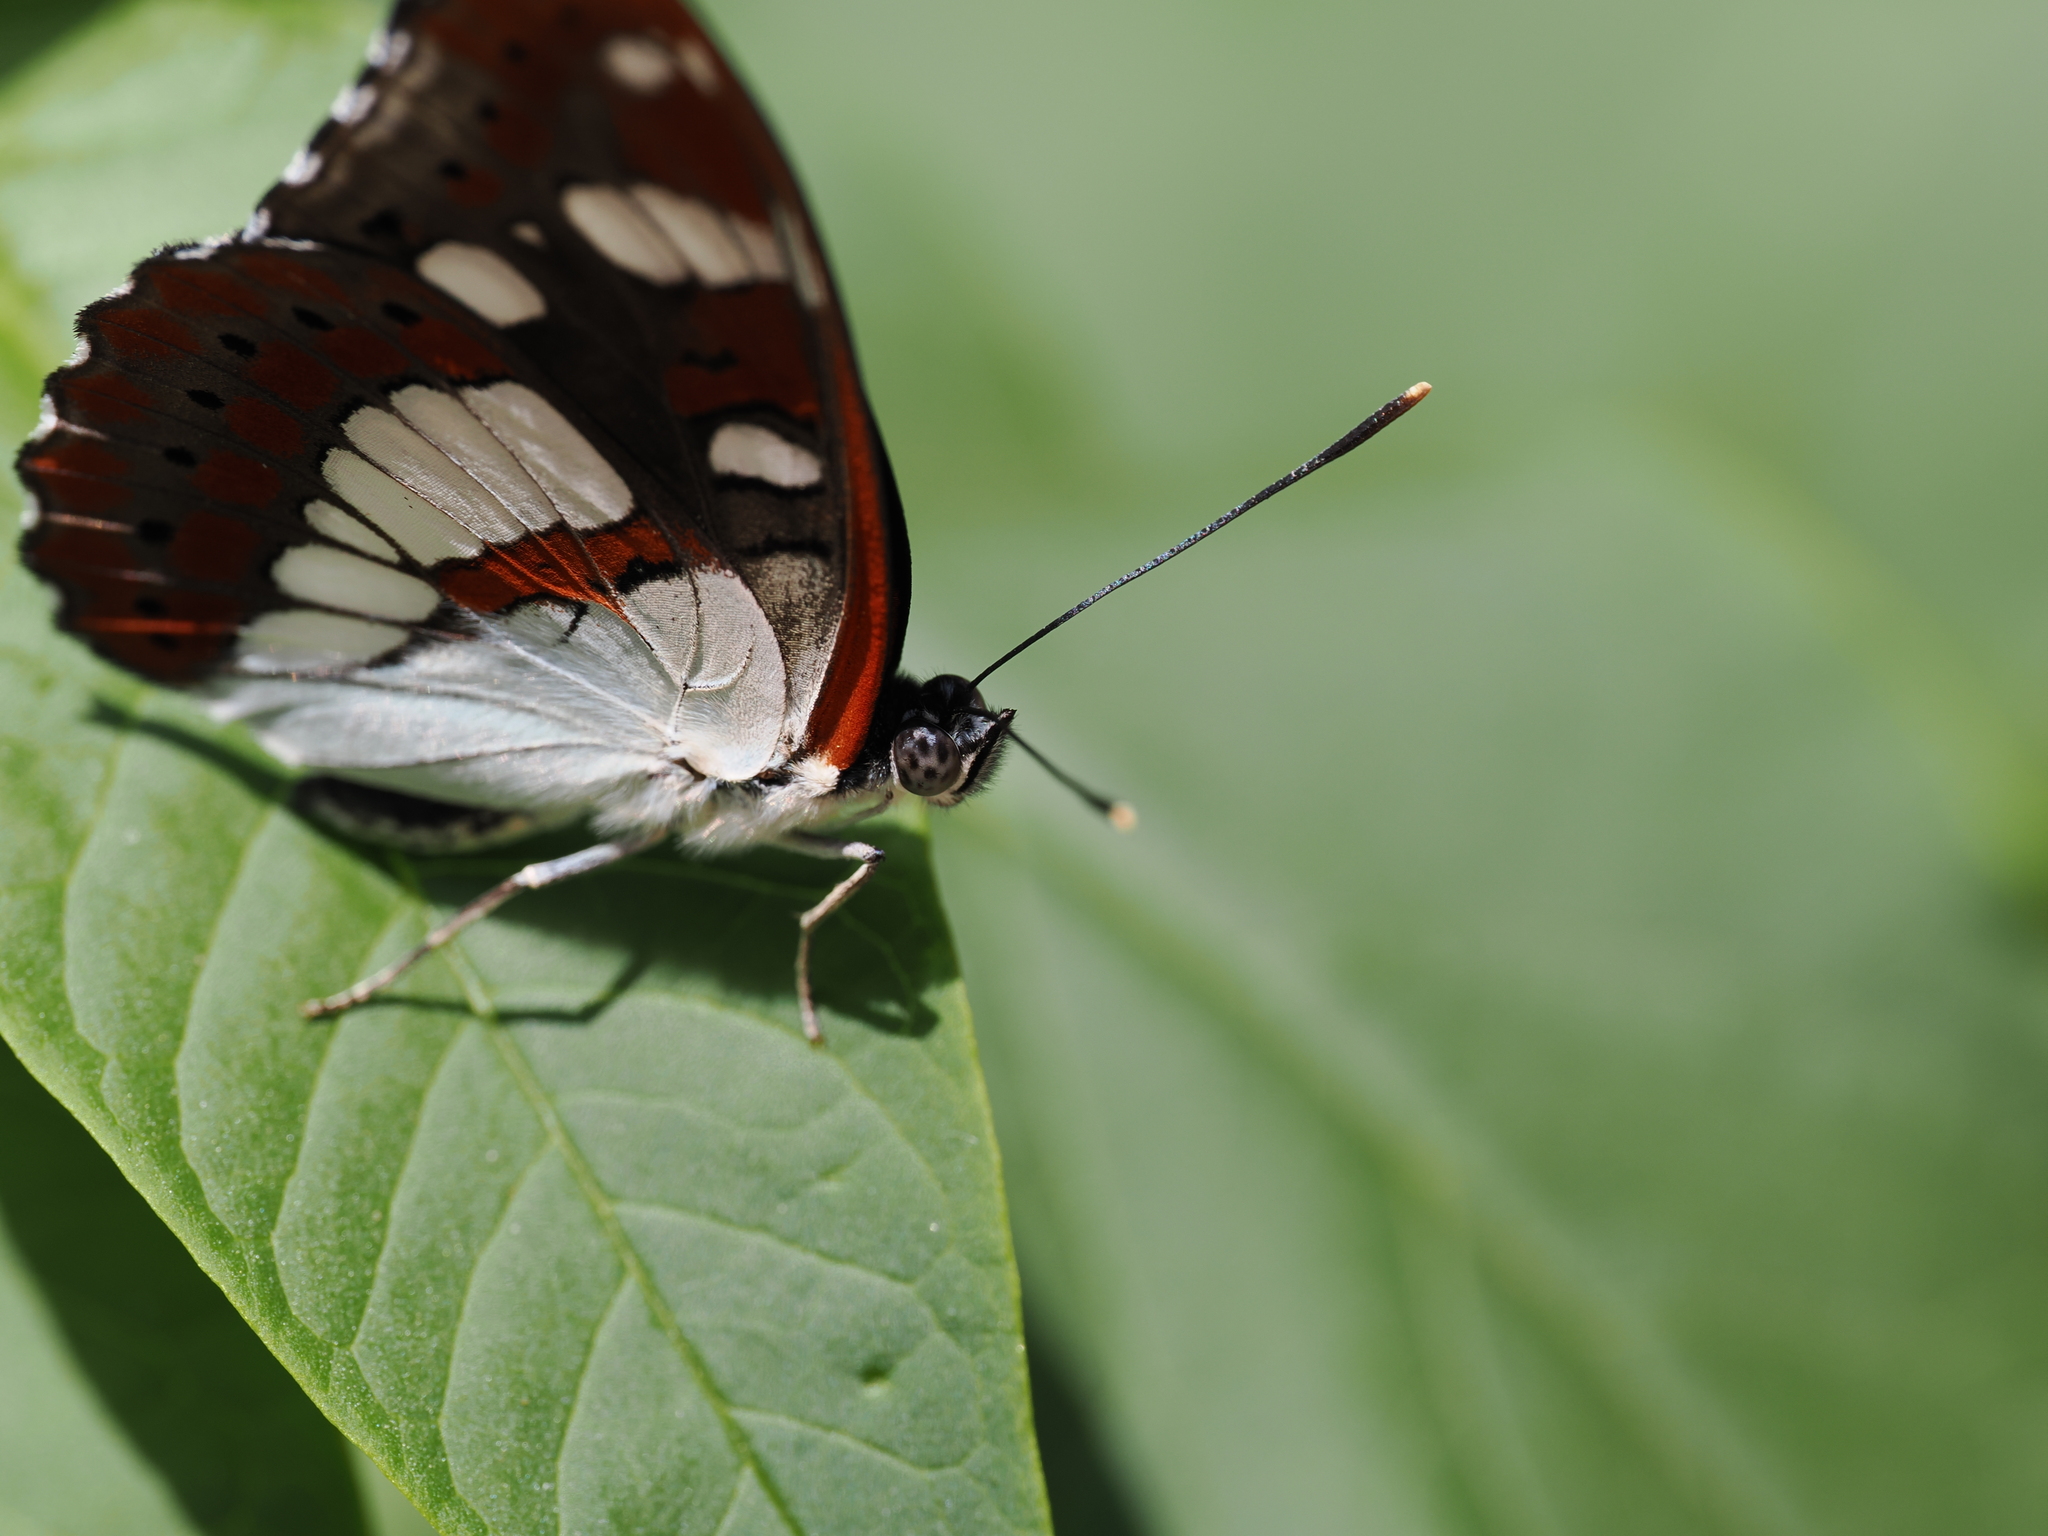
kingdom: Animalia
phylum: Arthropoda
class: Insecta
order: Lepidoptera
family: Nymphalidae
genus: Limenitis
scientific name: Limenitis reducta
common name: Southern white admiral
